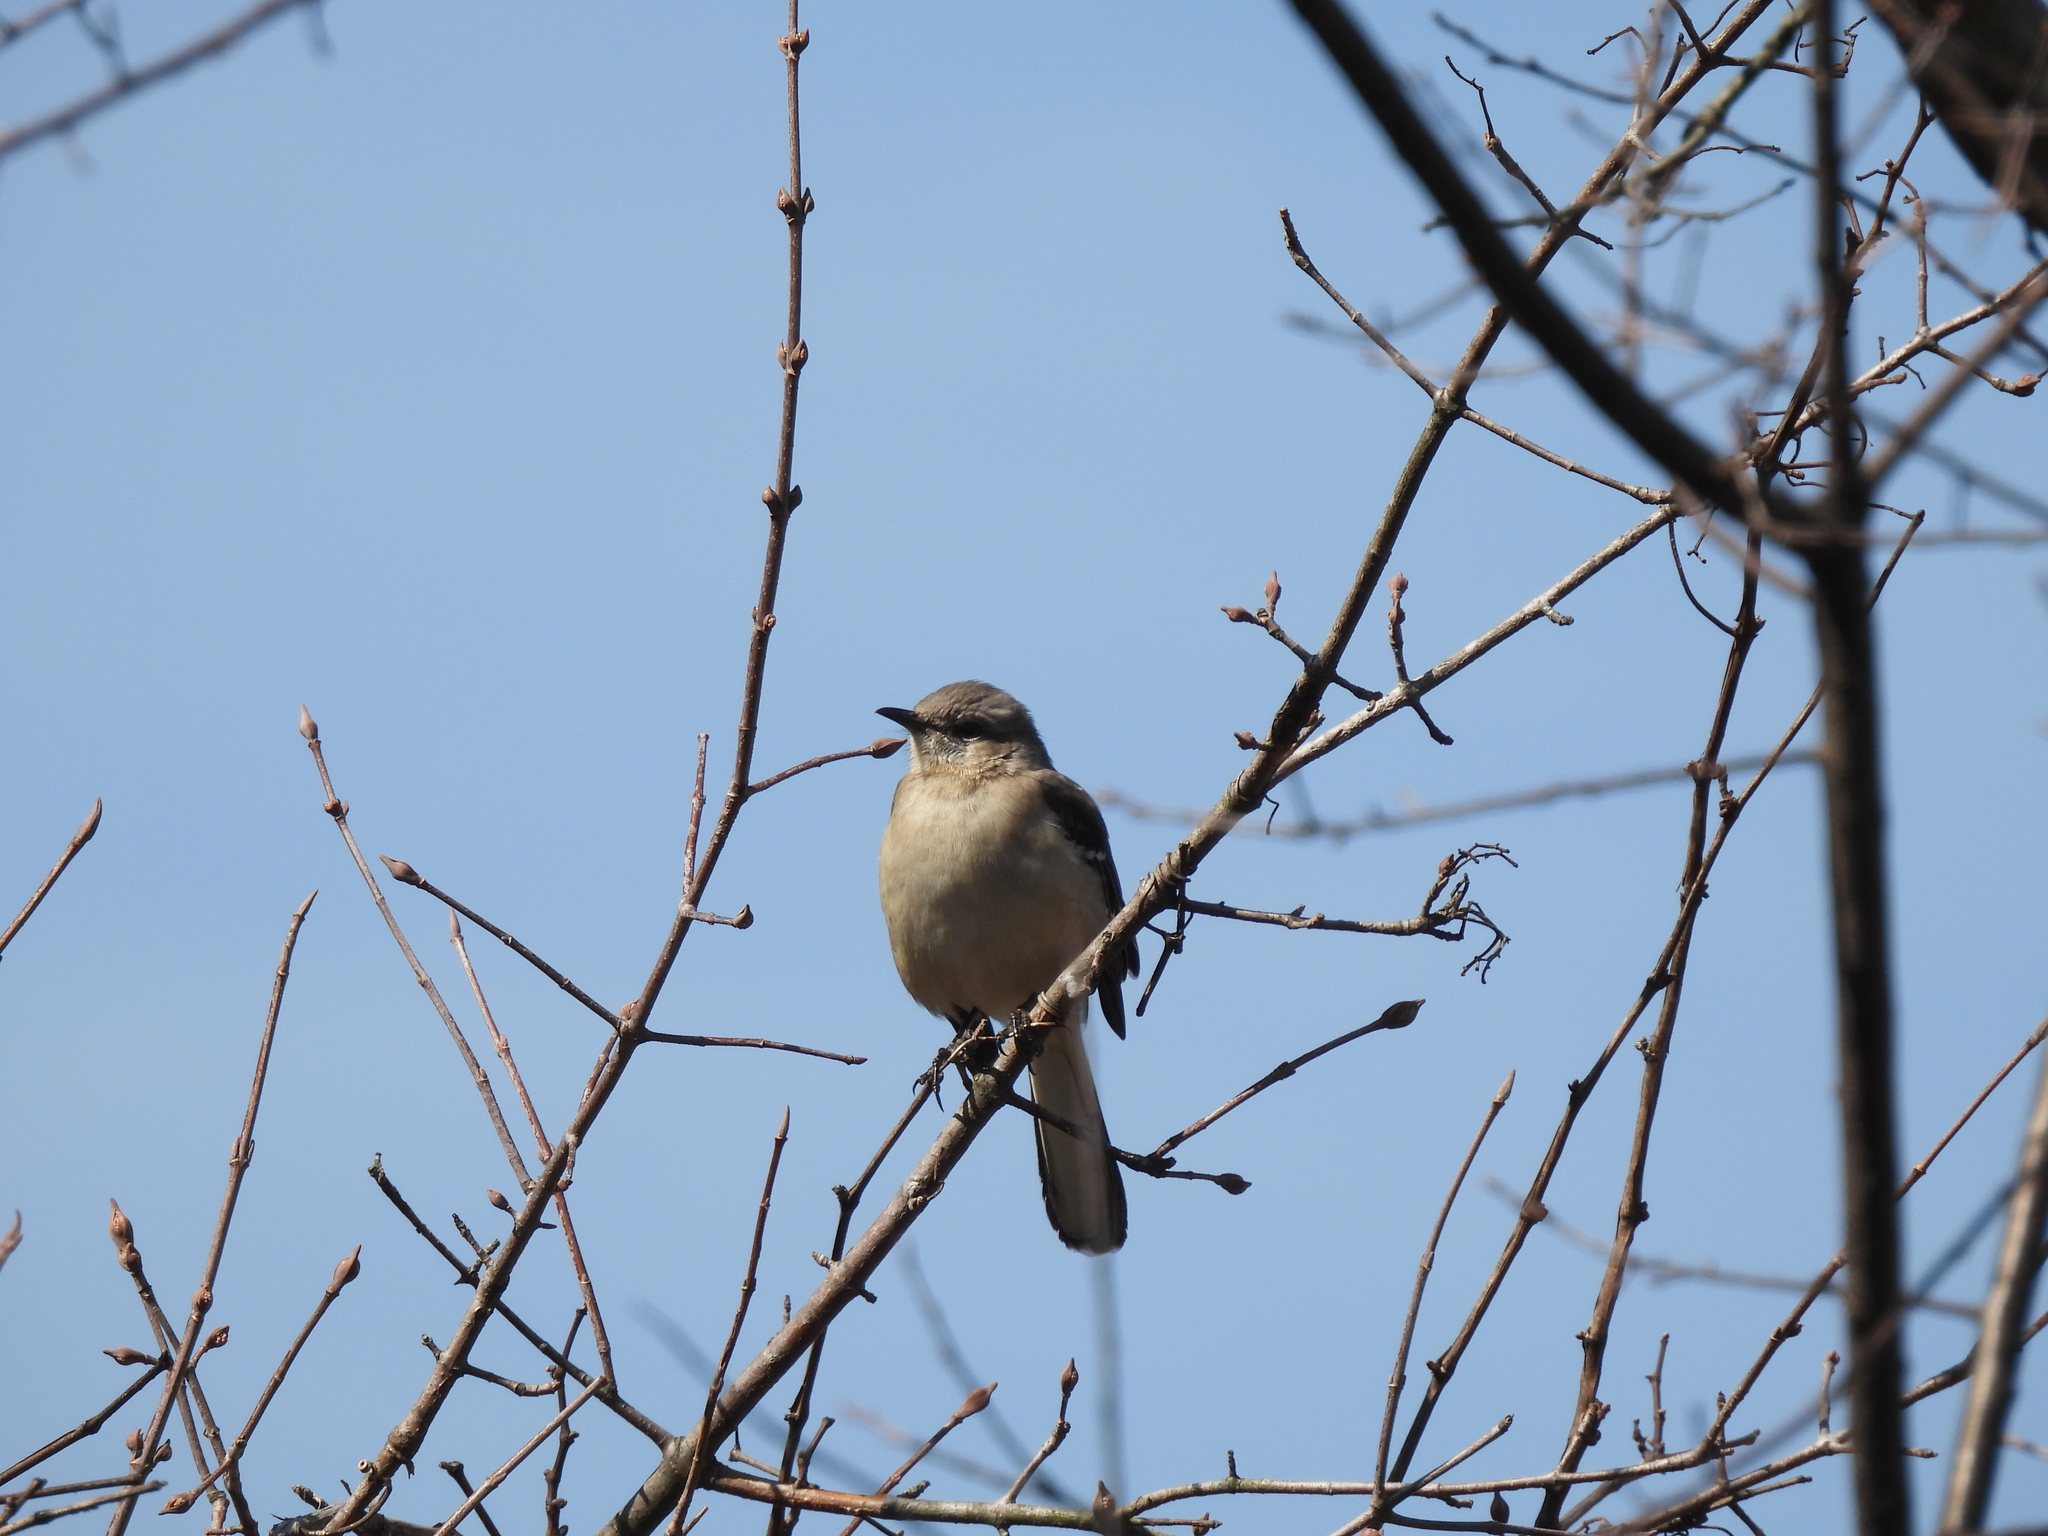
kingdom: Animalia
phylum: Chordata
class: Aves
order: Passeriformes
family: Mimidae
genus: Mimus
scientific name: Mimus polyglottos
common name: Northern mockingbird
